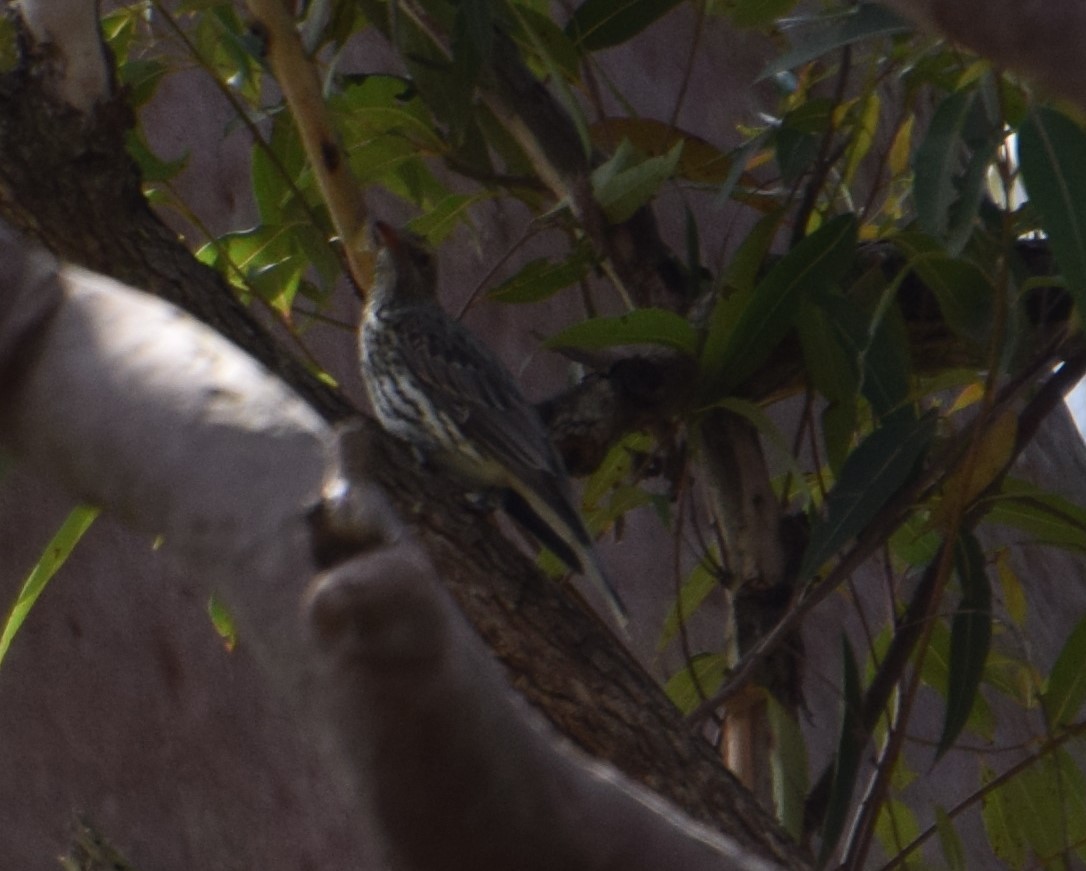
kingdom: Animalia
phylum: Chordata
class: Aves
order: Passeriformes
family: Oriolidae
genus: Oriolus
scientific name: Oriolus sagittatus
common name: Olive-backed oriole
